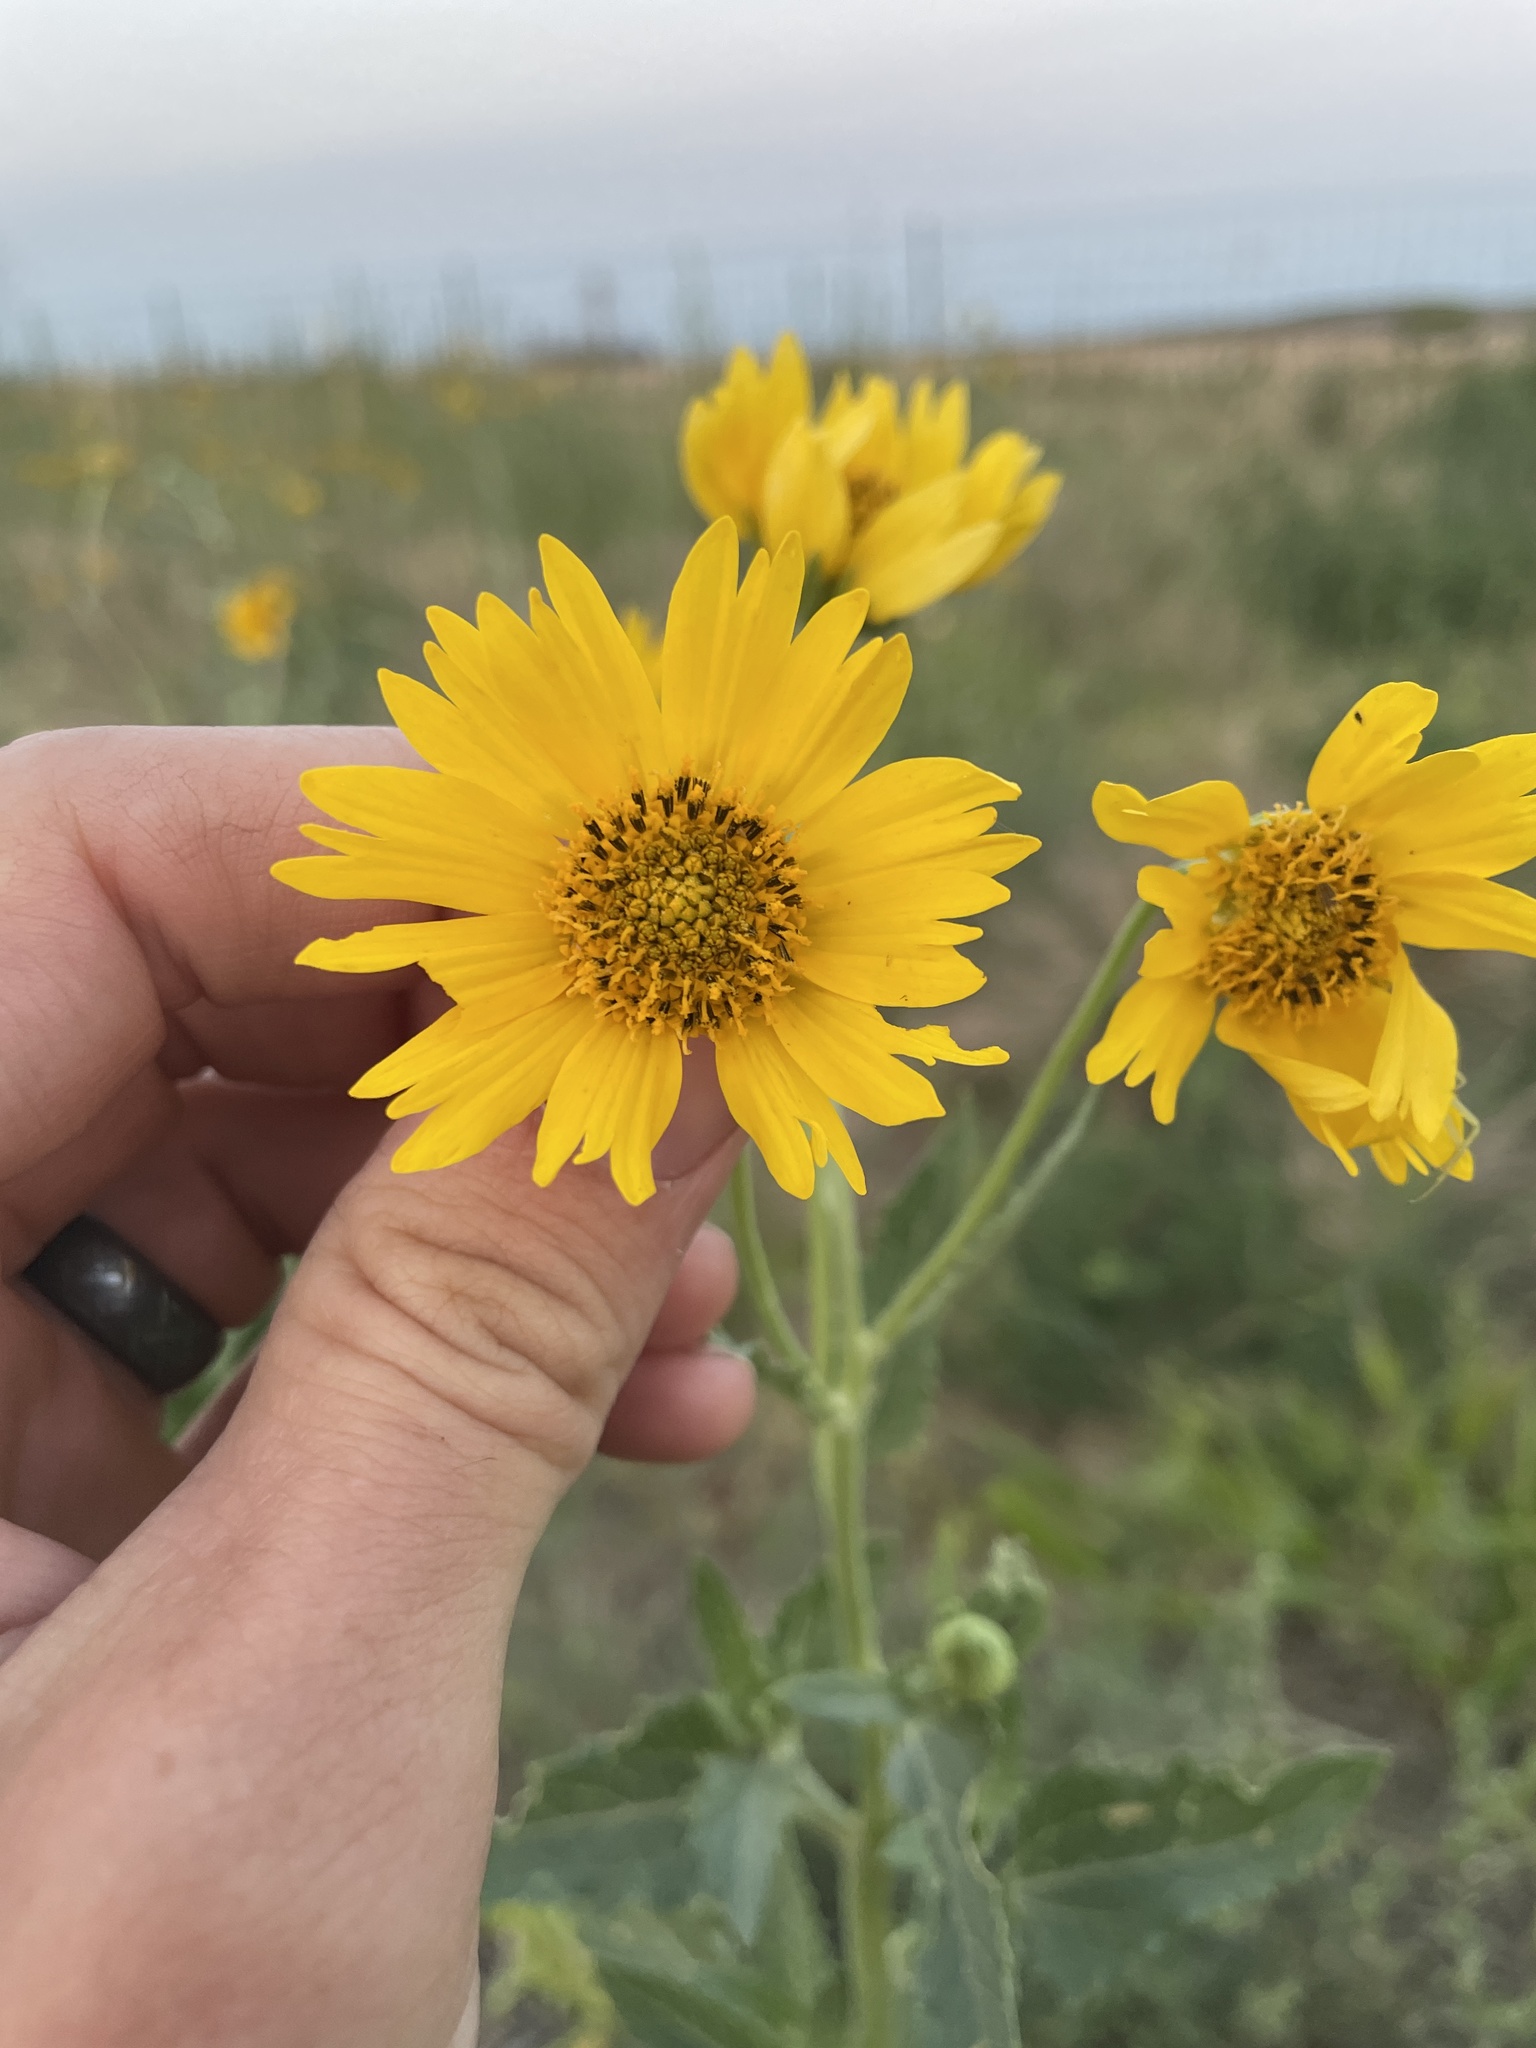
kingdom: Plantae
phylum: Tracheophyta
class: Magnoliopsida
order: Asterales
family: Asteraceae
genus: Verbesina
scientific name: Verbesina encelioides
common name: Golden crownbeard
